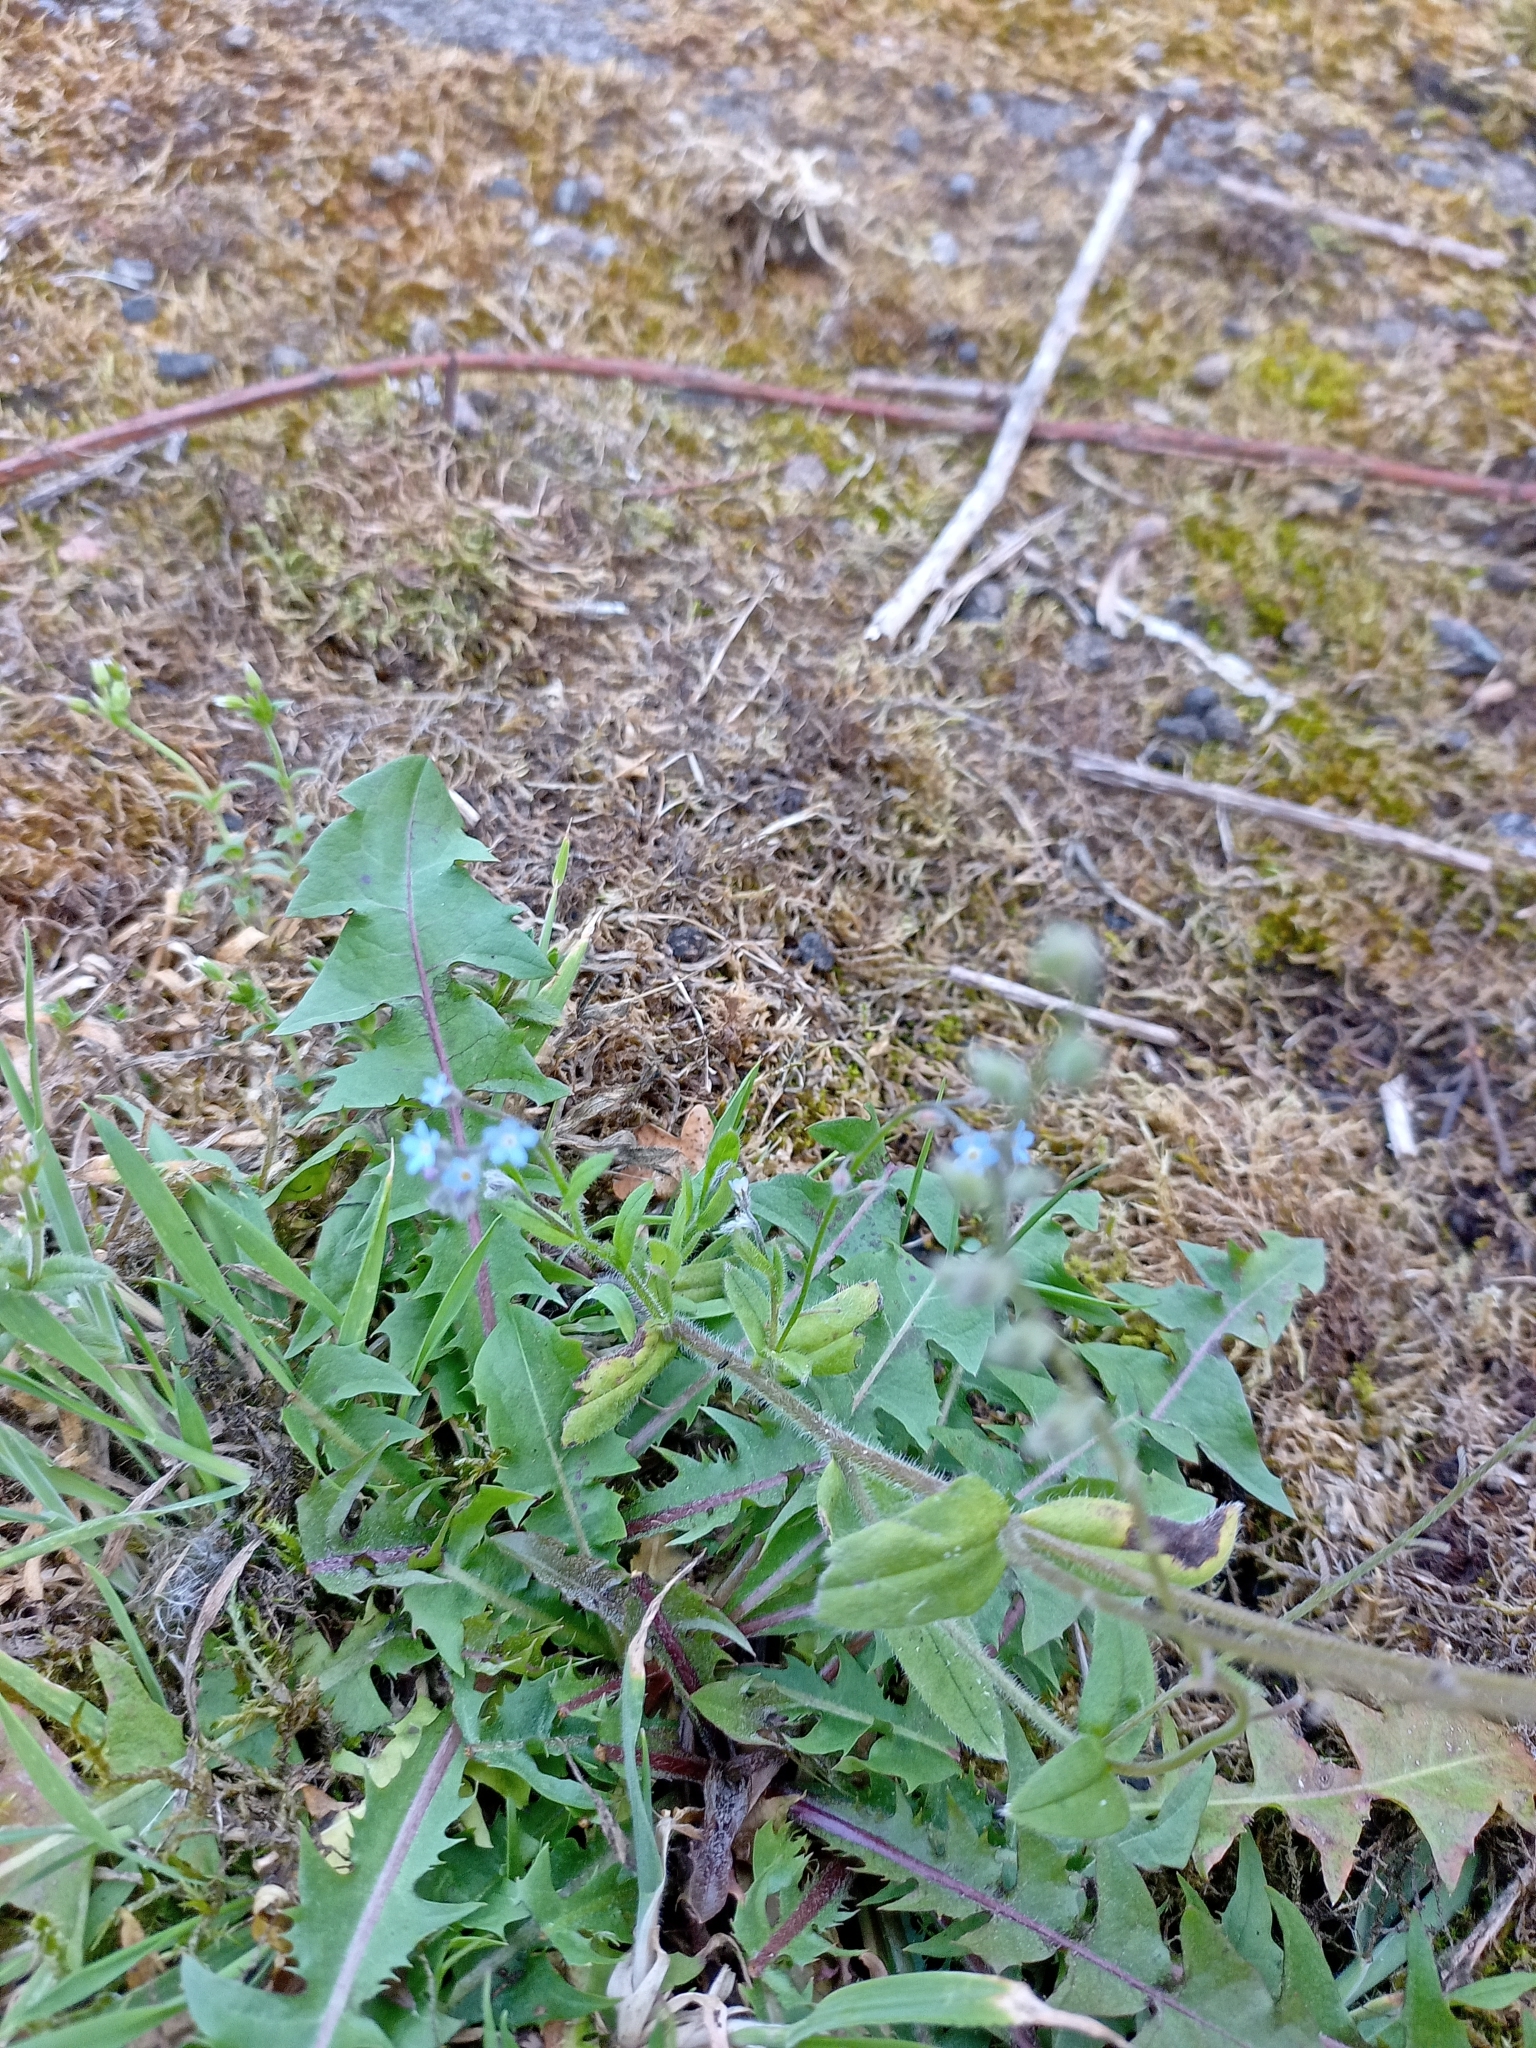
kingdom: Plantae
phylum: Tracheophyta
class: Magnoliopsida
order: Boraginales
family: Boraginaceae
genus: Myosotis
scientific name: Myosotis arvensis
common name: Field forget-me-not
